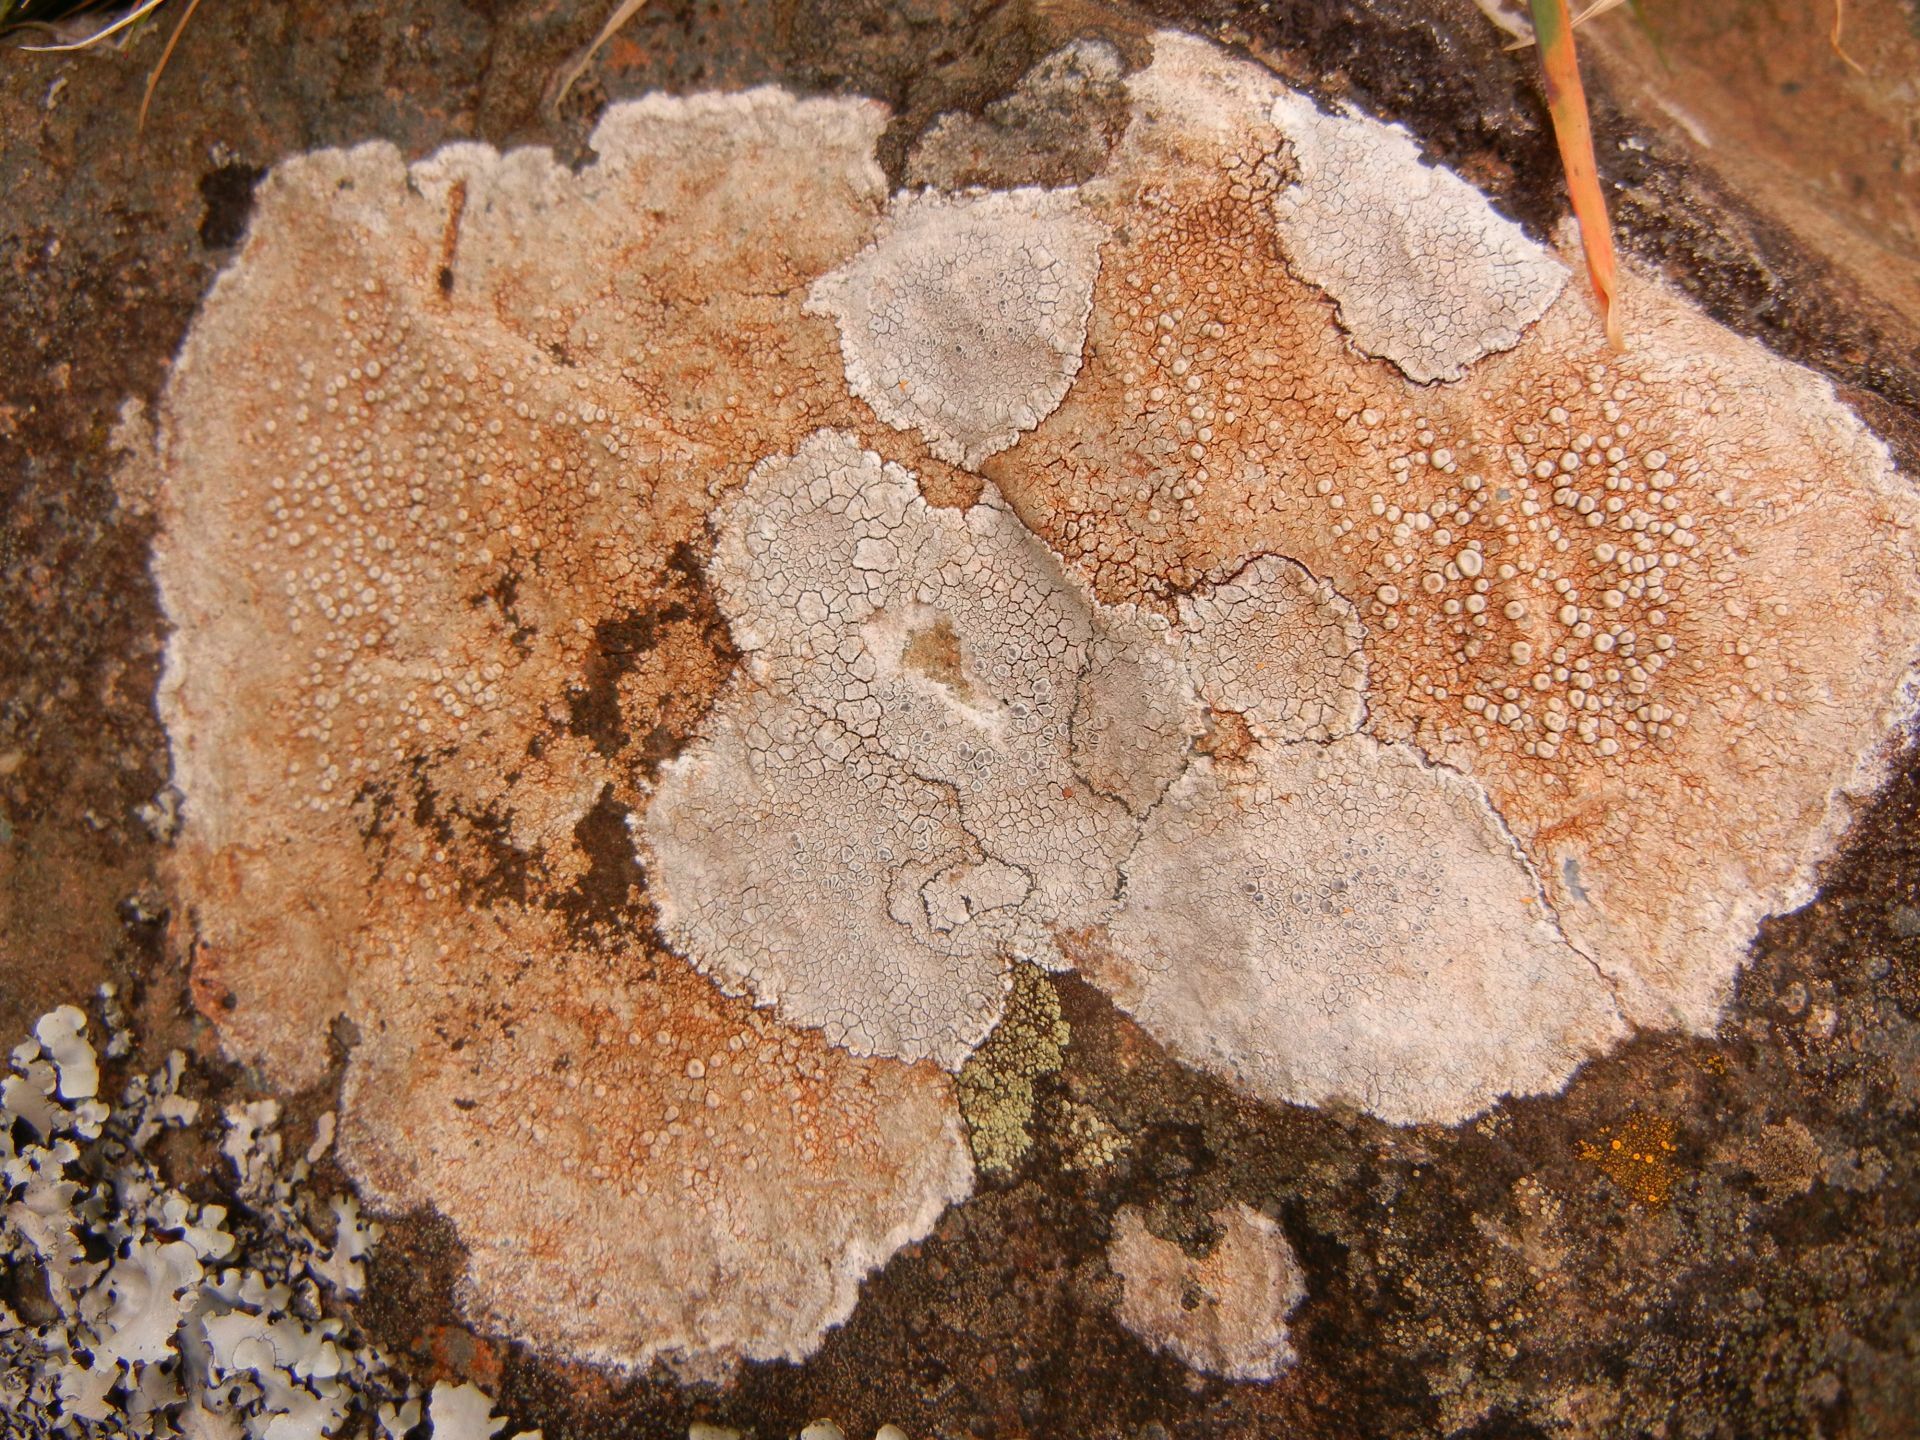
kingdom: Fungi
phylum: Ascomycota
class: Lecanoromycetes
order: Pertusariales
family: Ochrolechiaceae
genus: Ochrolechia
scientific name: Ochrolechia parella
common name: Crab's eye lichen
